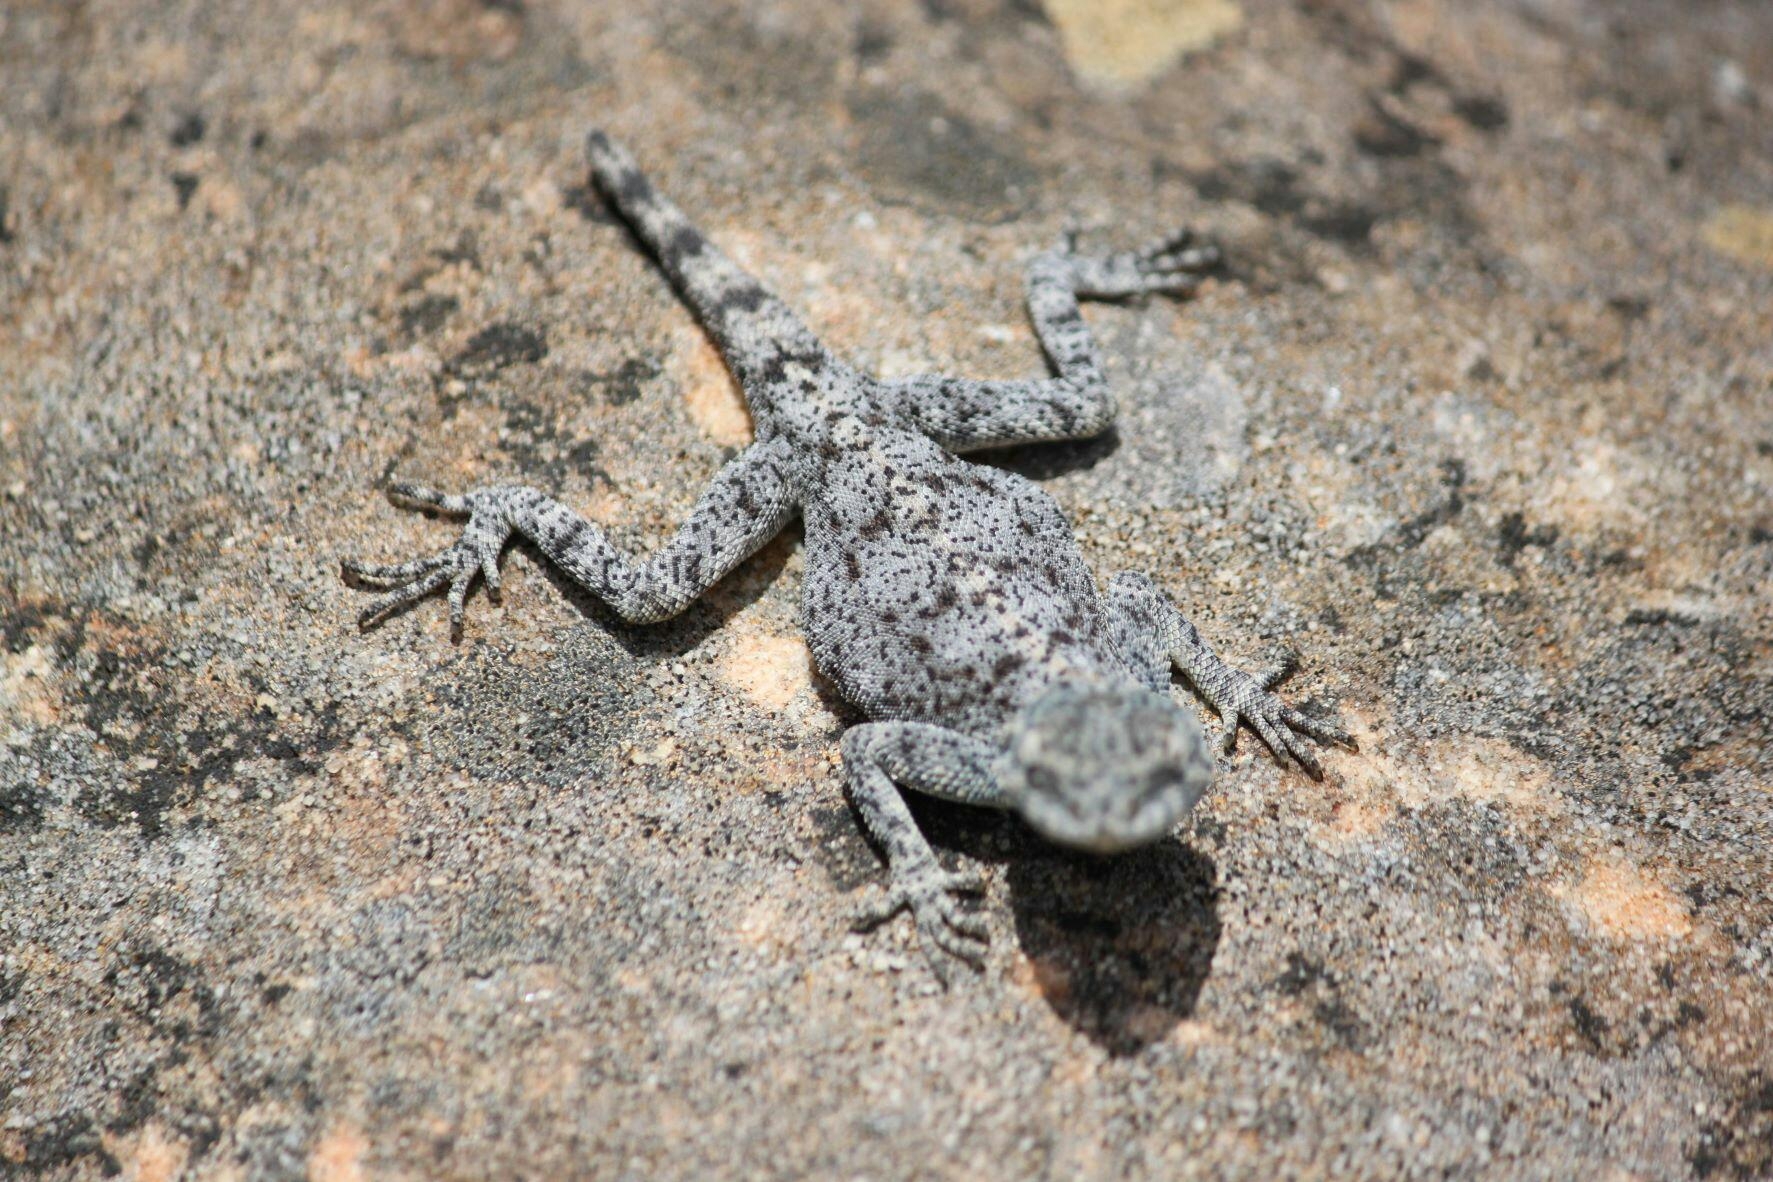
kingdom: Animalia
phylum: Chordata
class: Squamata
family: Agamidae
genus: Agama
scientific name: Agama atra
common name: Southern african rock agama
